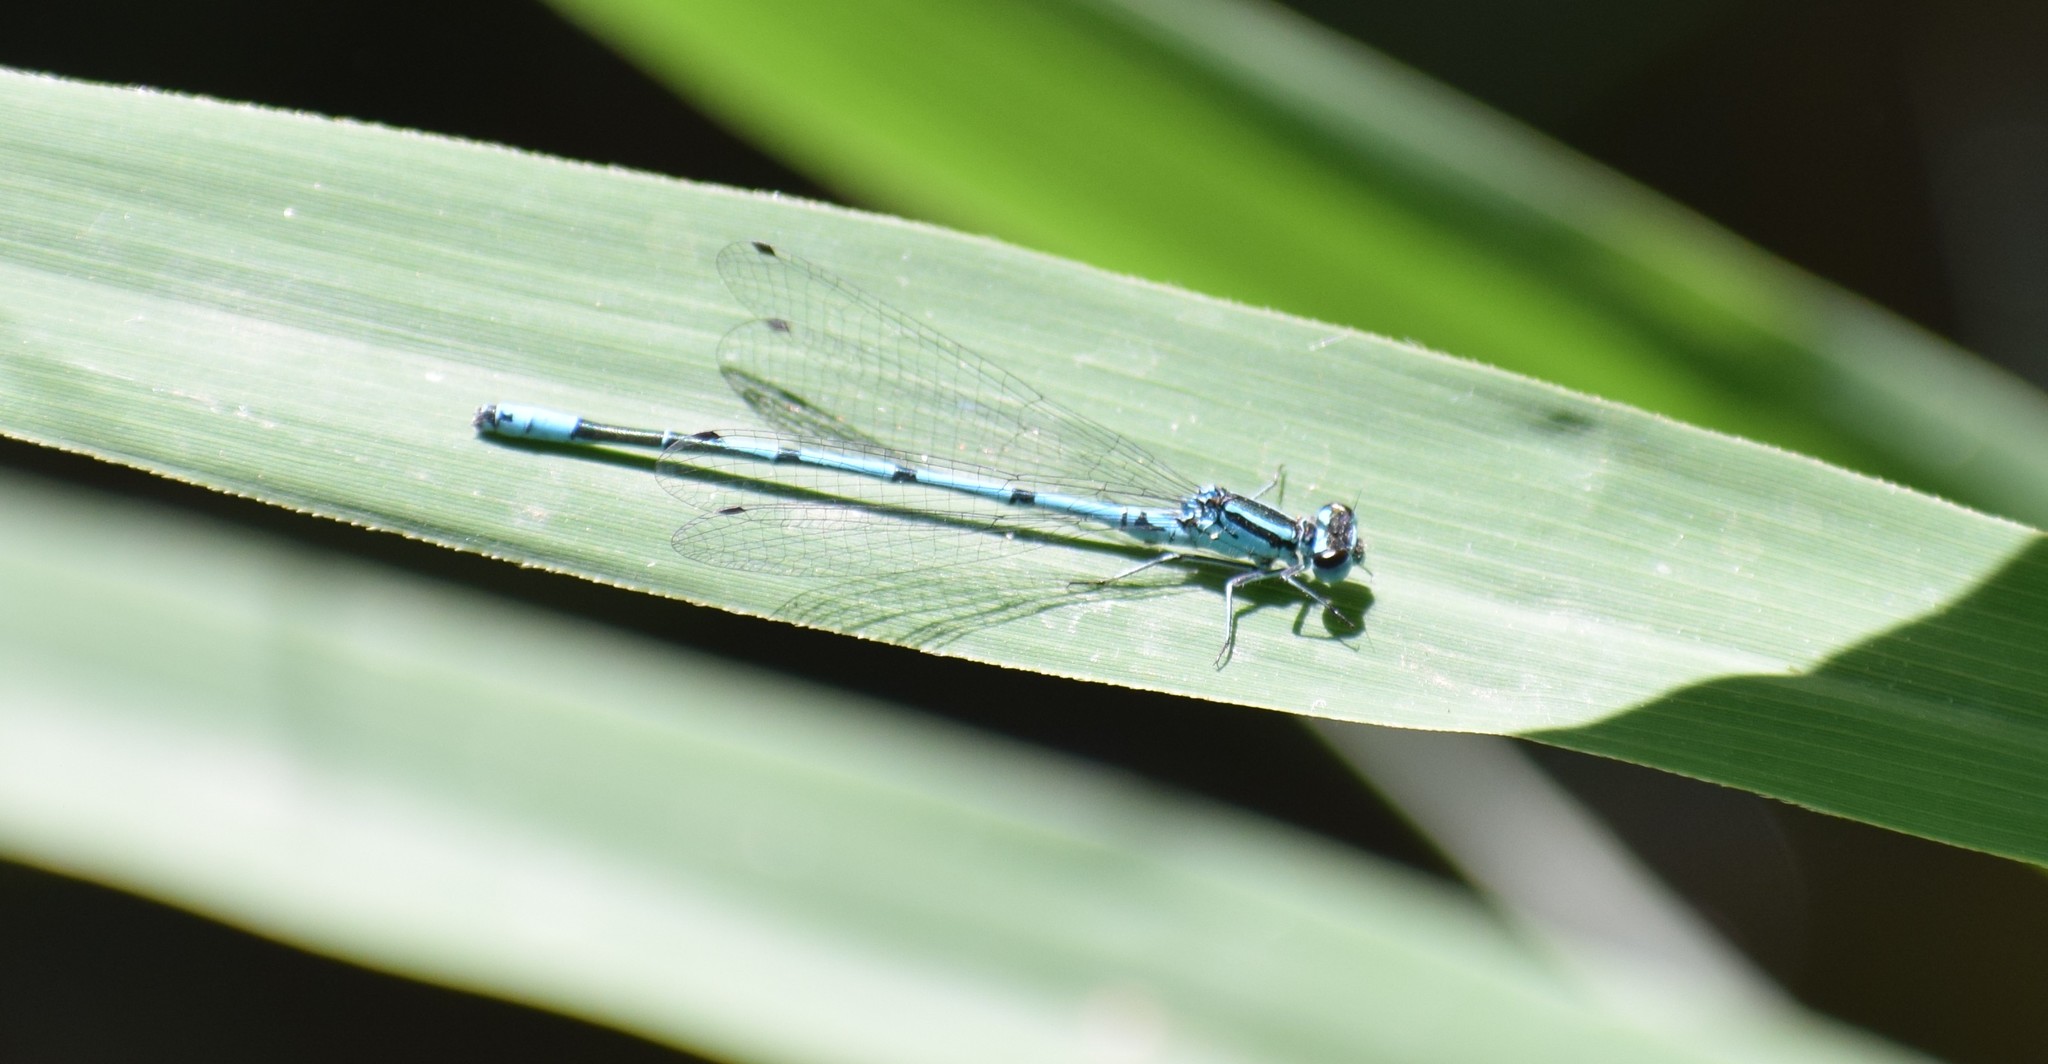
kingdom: Animalia
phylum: Arthropoda
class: Insecta
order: Odonata
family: Coenagrionidae
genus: Coenagrion
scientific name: Coenagrion puella
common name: Azure damselfly
